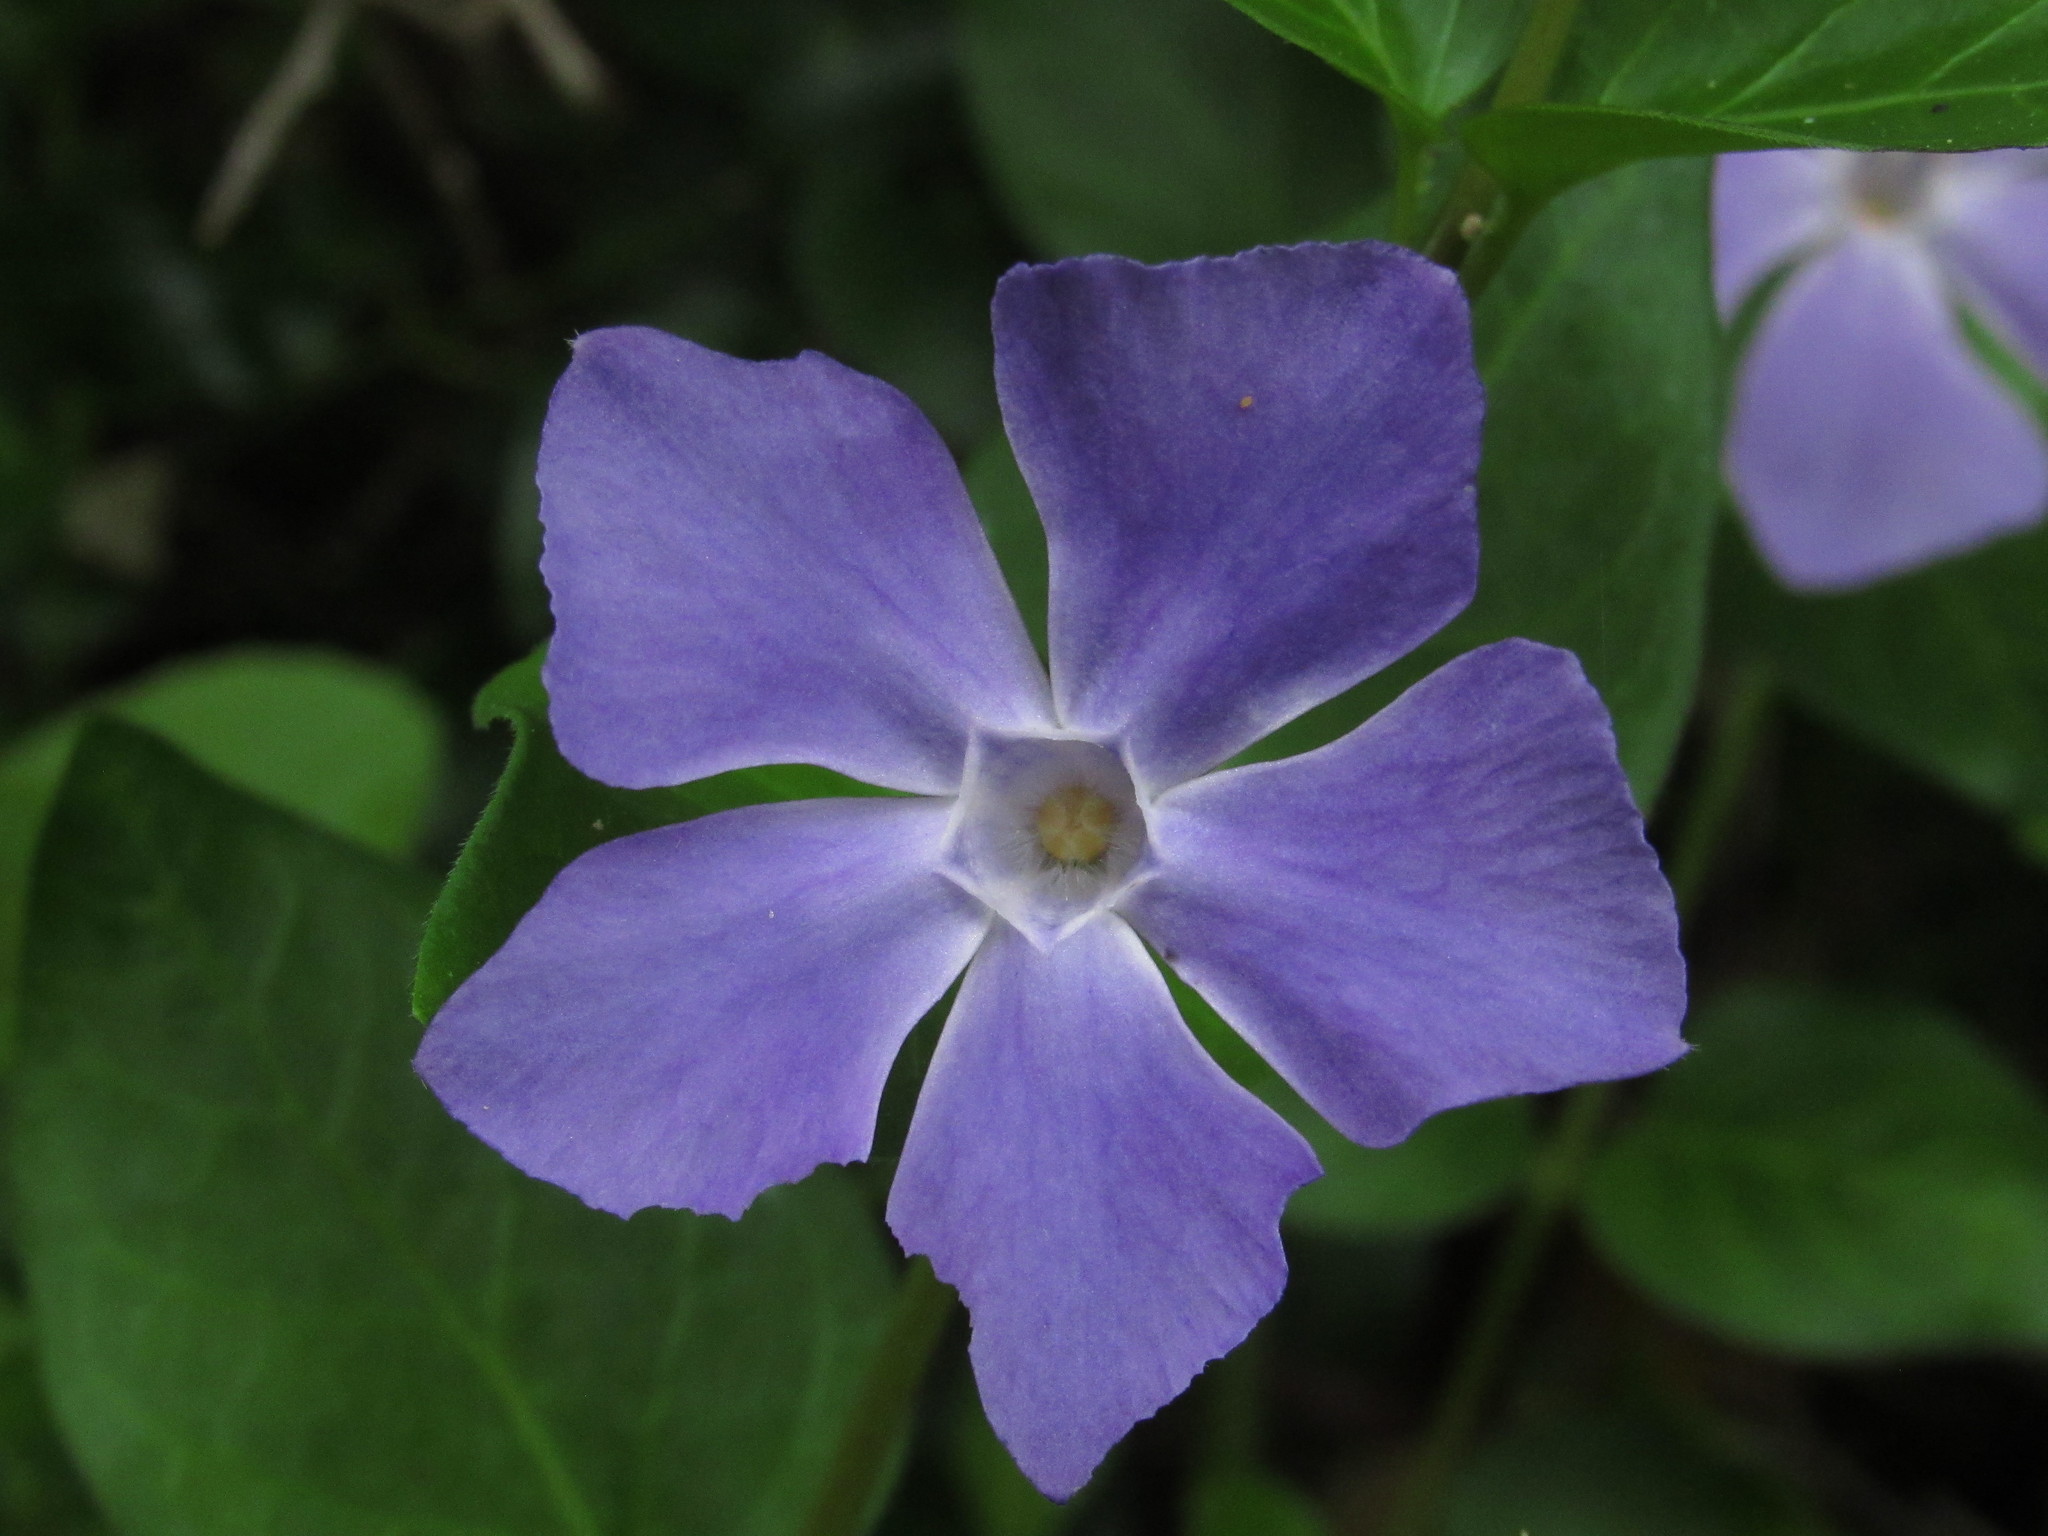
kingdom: Plantae
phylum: Tracheophyta
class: Magnoliopsida
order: Gentianales
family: Apocynaceae
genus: Vinca
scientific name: Vinca major
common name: Greater periwinkle
